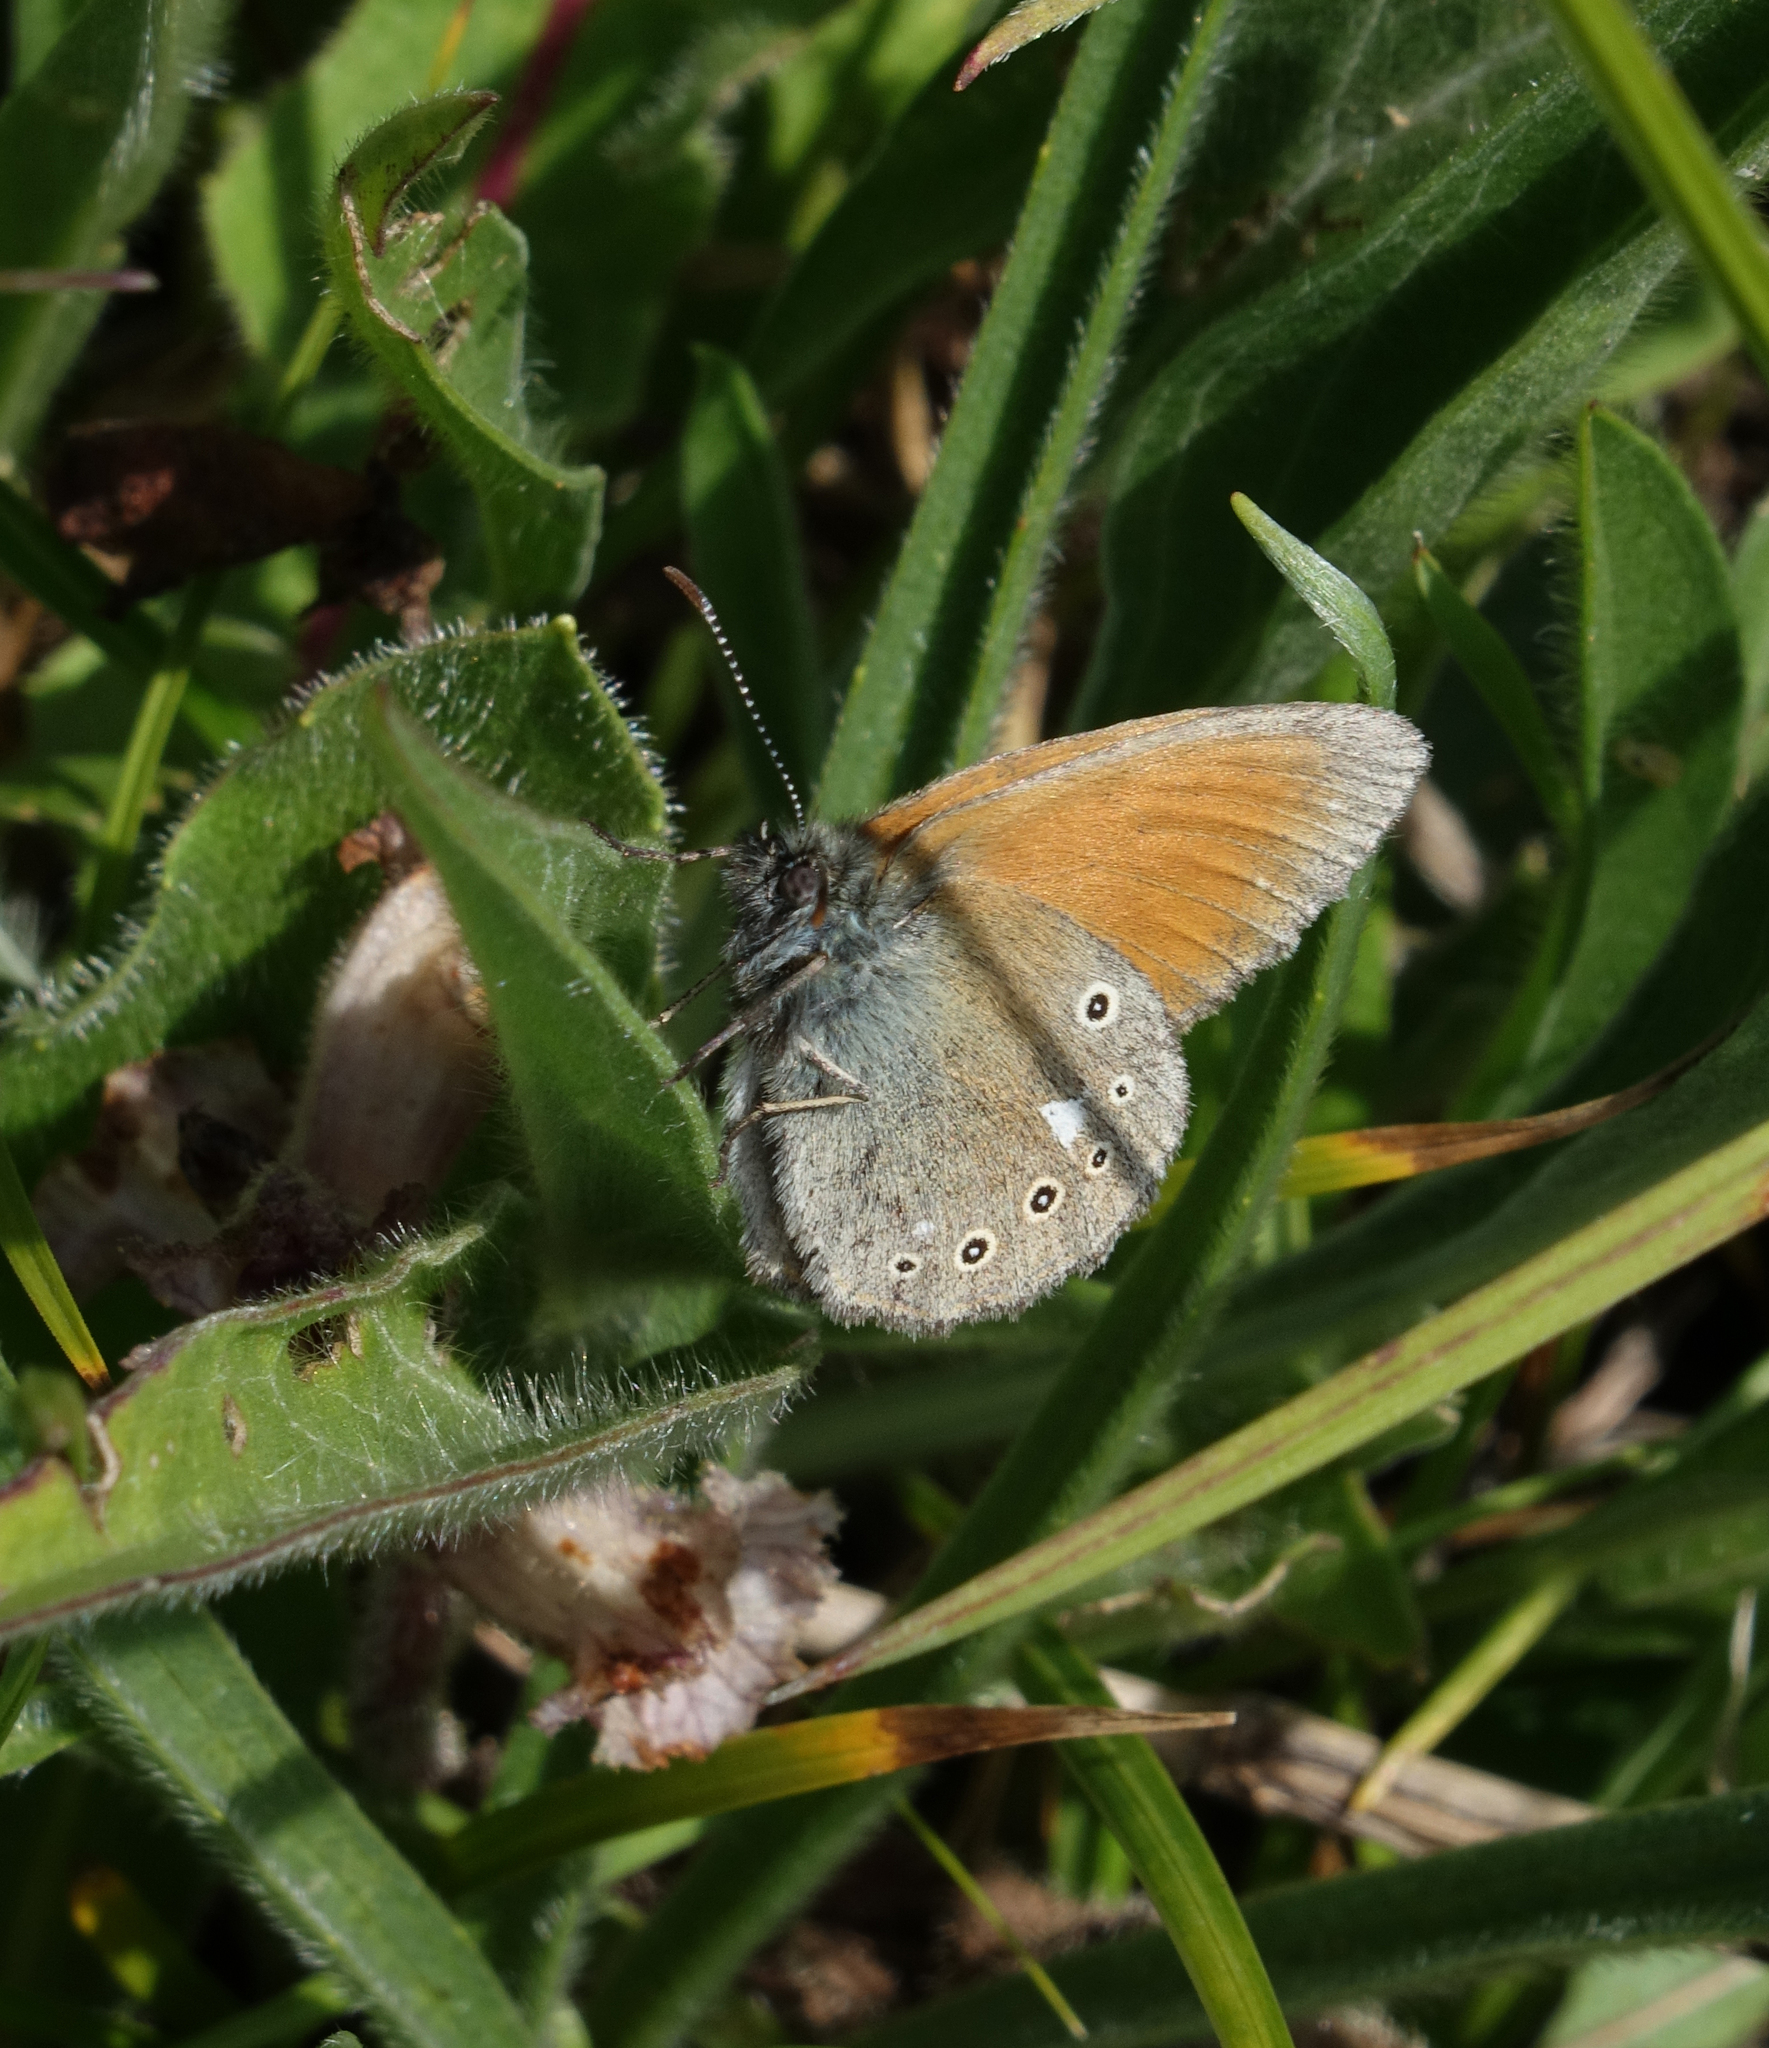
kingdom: Animalia
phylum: Arthropoda
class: Insecta
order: Lepidoptera
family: Nymphalidae
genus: Coenonympha
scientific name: Coenonympha iphis
